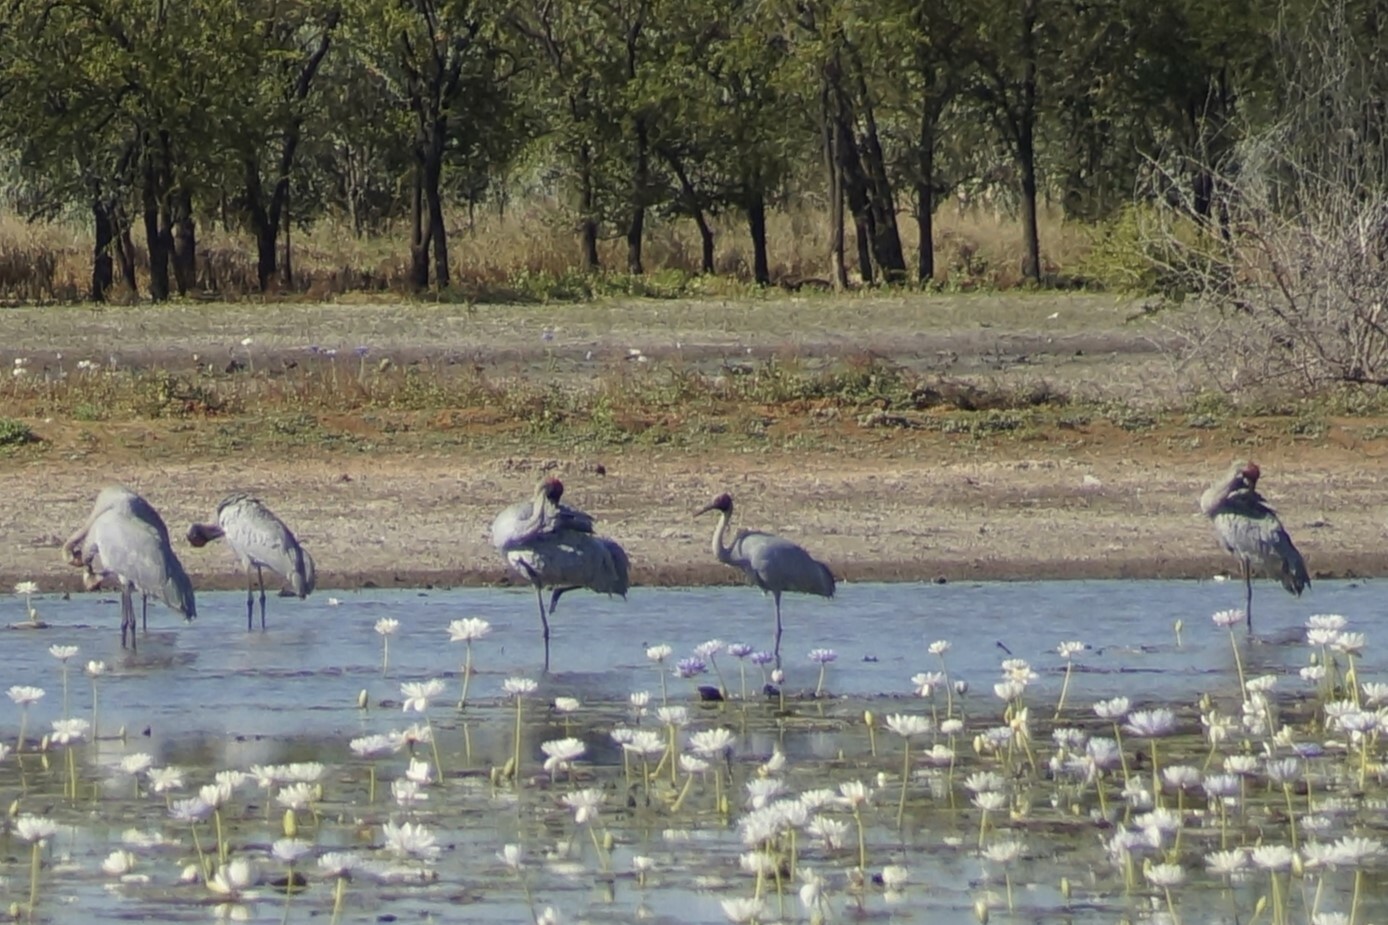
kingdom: Animalia
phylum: Chordata
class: Aves
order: Gruiformes
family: Gruidae
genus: Grus
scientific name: Grus rubicunda
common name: Brolga
